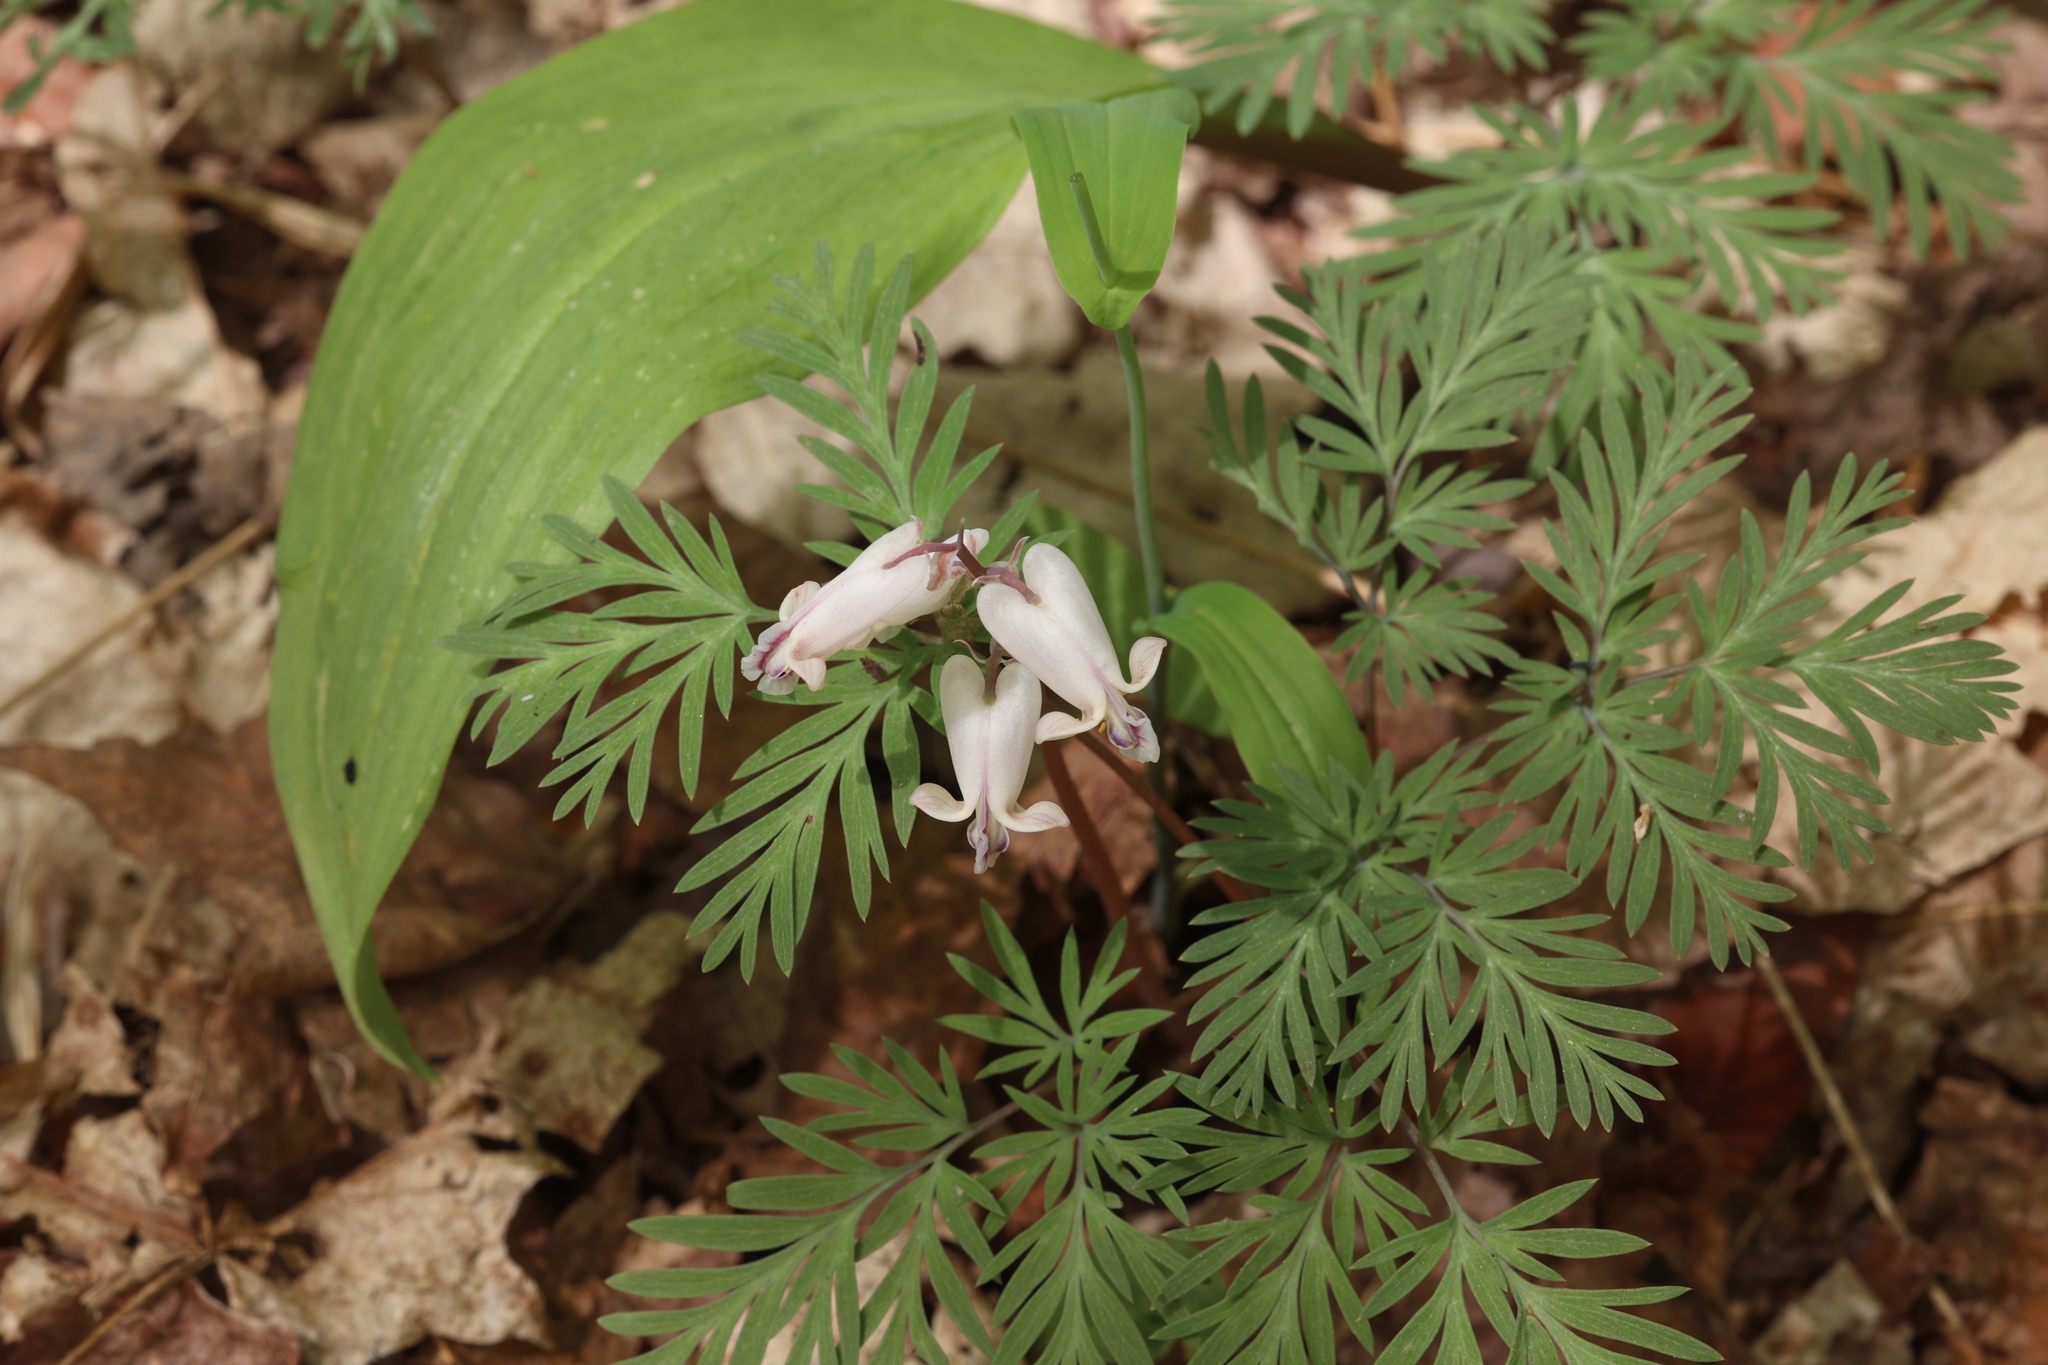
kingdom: Plantae
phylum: Tracheophyta
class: Magnoliopsida
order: Ranunculales
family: Papaveraceae
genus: Dicentra
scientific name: Dicentra canadensis
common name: Squirrel-corn
